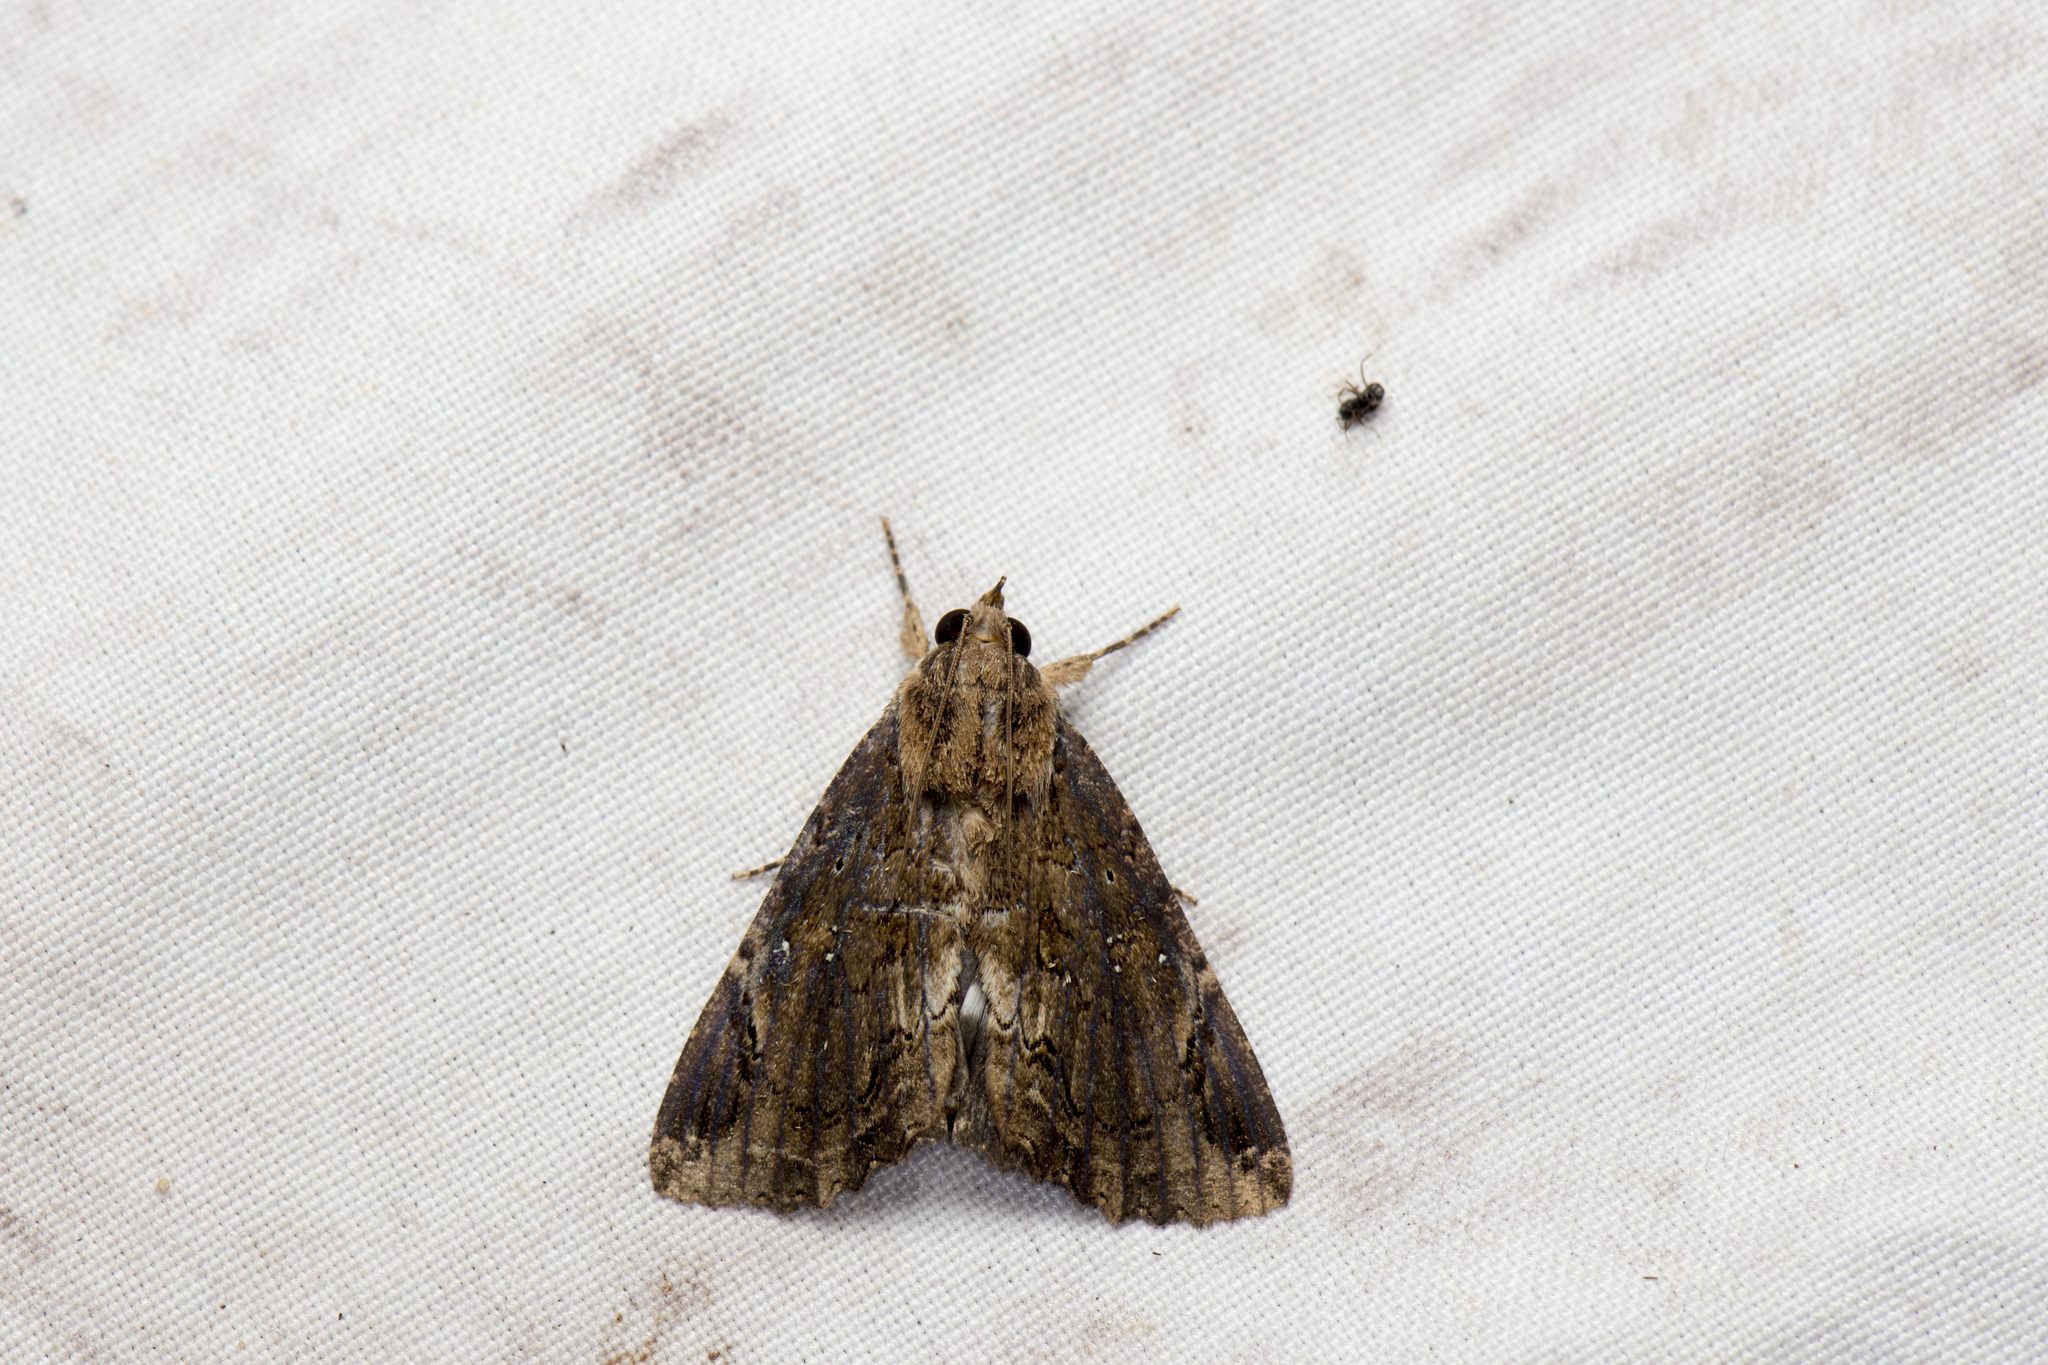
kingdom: Animalia
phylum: Arthropoda
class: Insecta
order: Lepidoptera
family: Erebidae
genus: Ercheia
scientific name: Ercheia cyllaria
